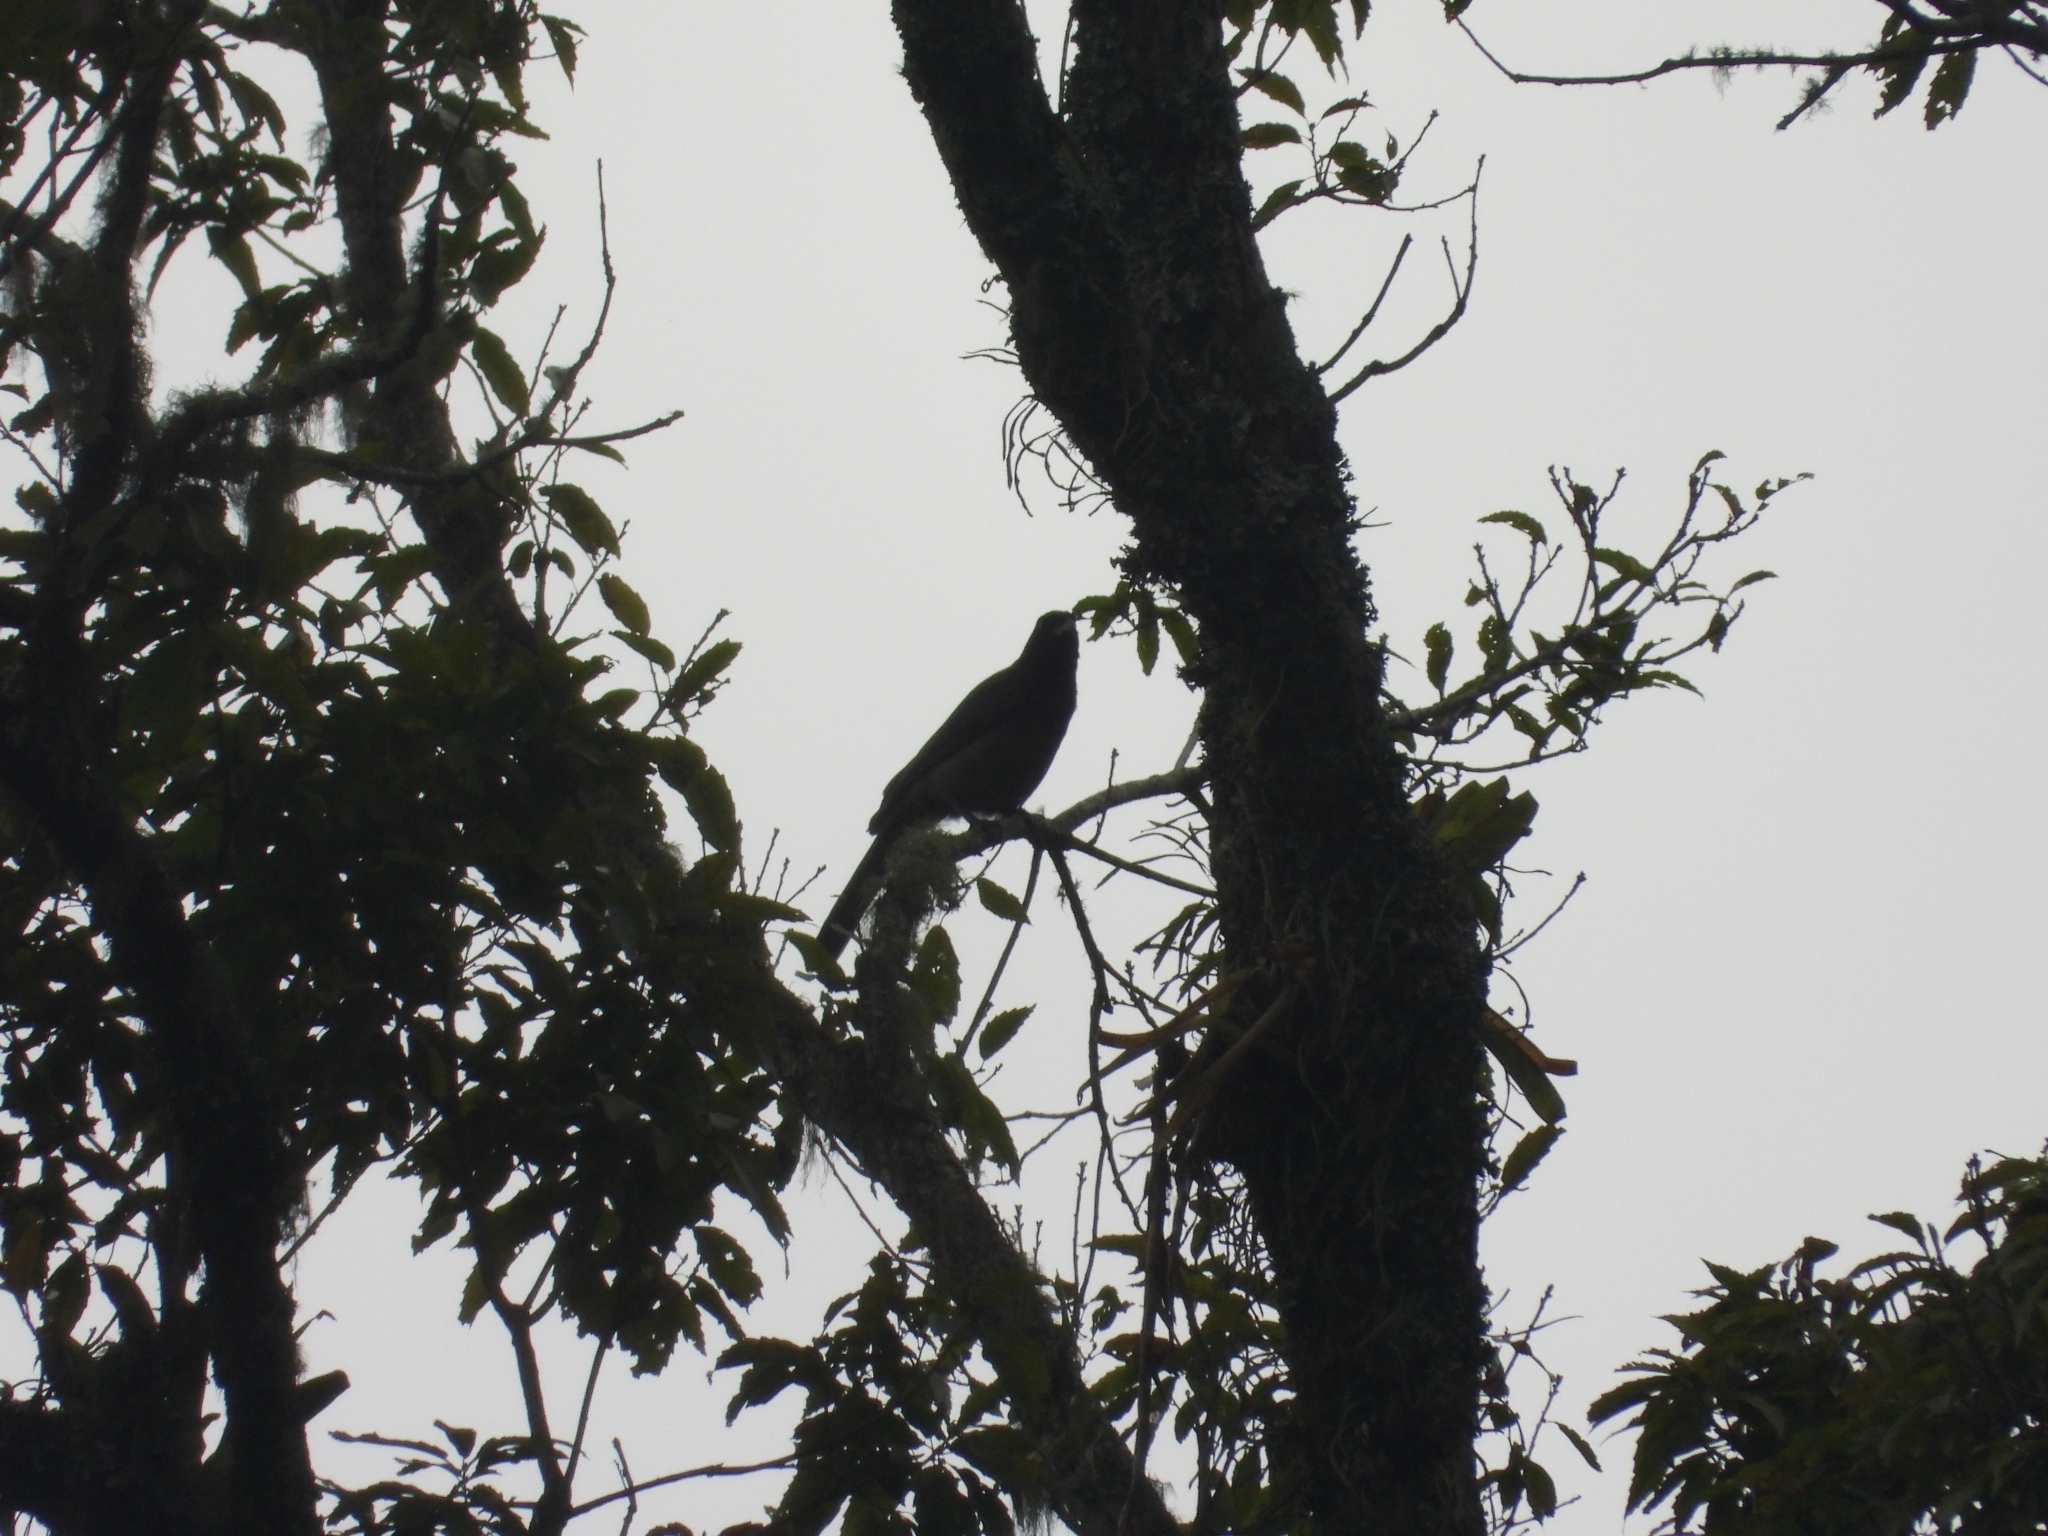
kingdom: Animalia
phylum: Chordata
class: Aves
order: Passeriformes
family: Corvidae
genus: Psilorhinus
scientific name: Psilorhinus morio
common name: Brown jay
